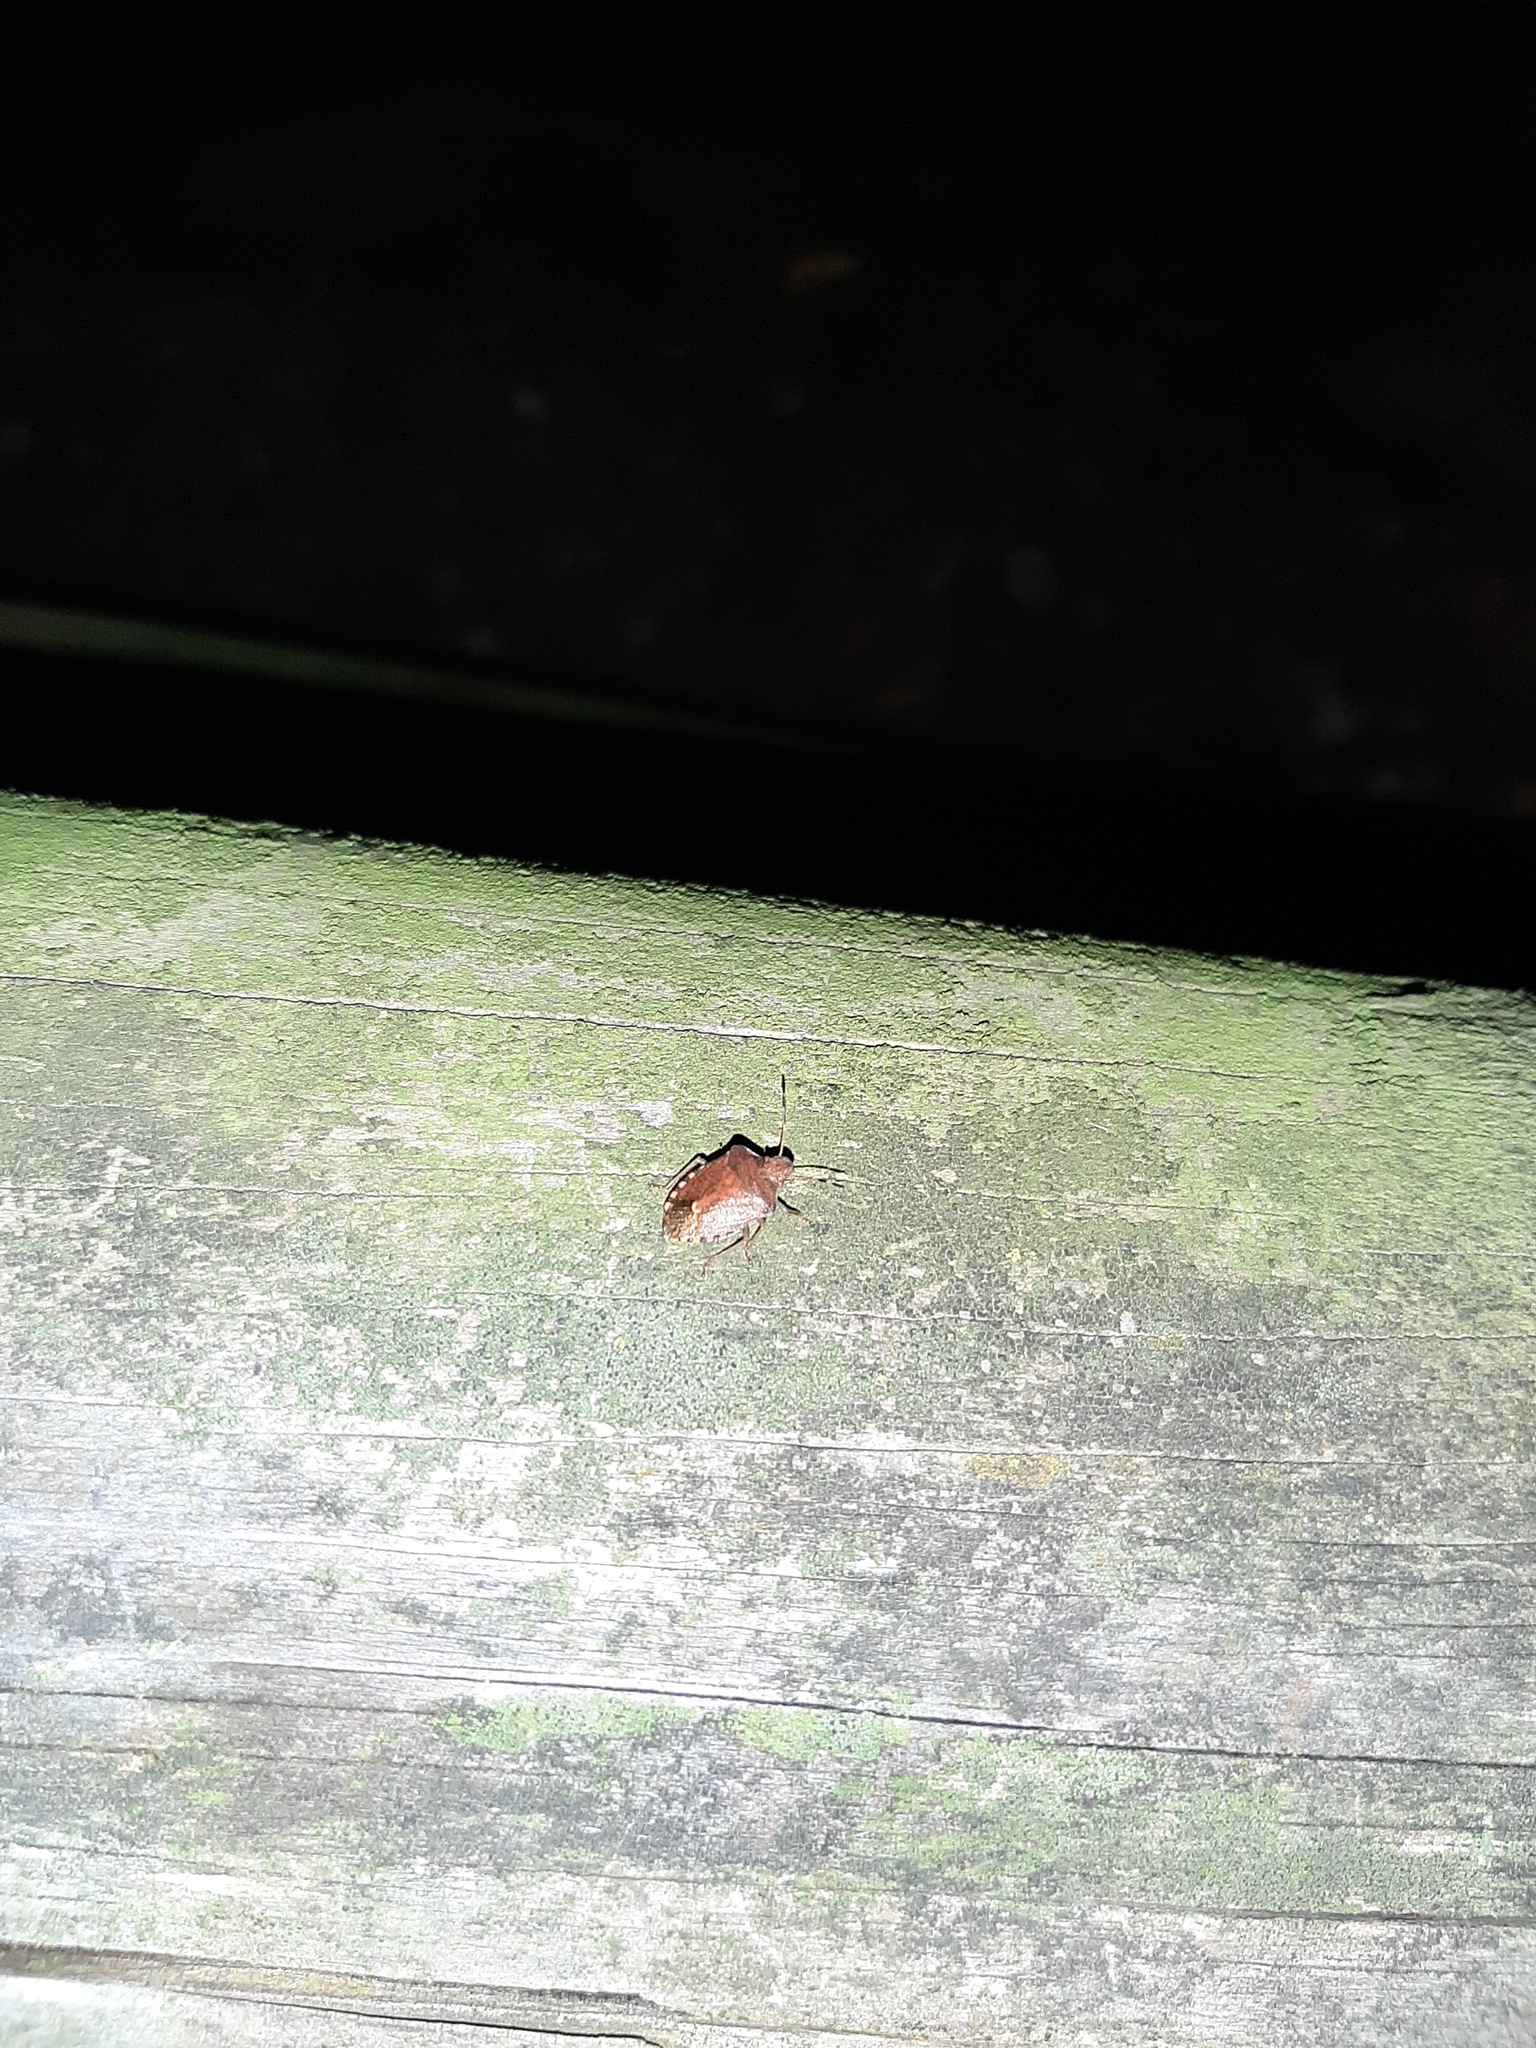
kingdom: Animalia
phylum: Arthropoda
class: Insecta
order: Hemiptera
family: Pentatomidae
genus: Holcostethus
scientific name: Holcostethus strictus
